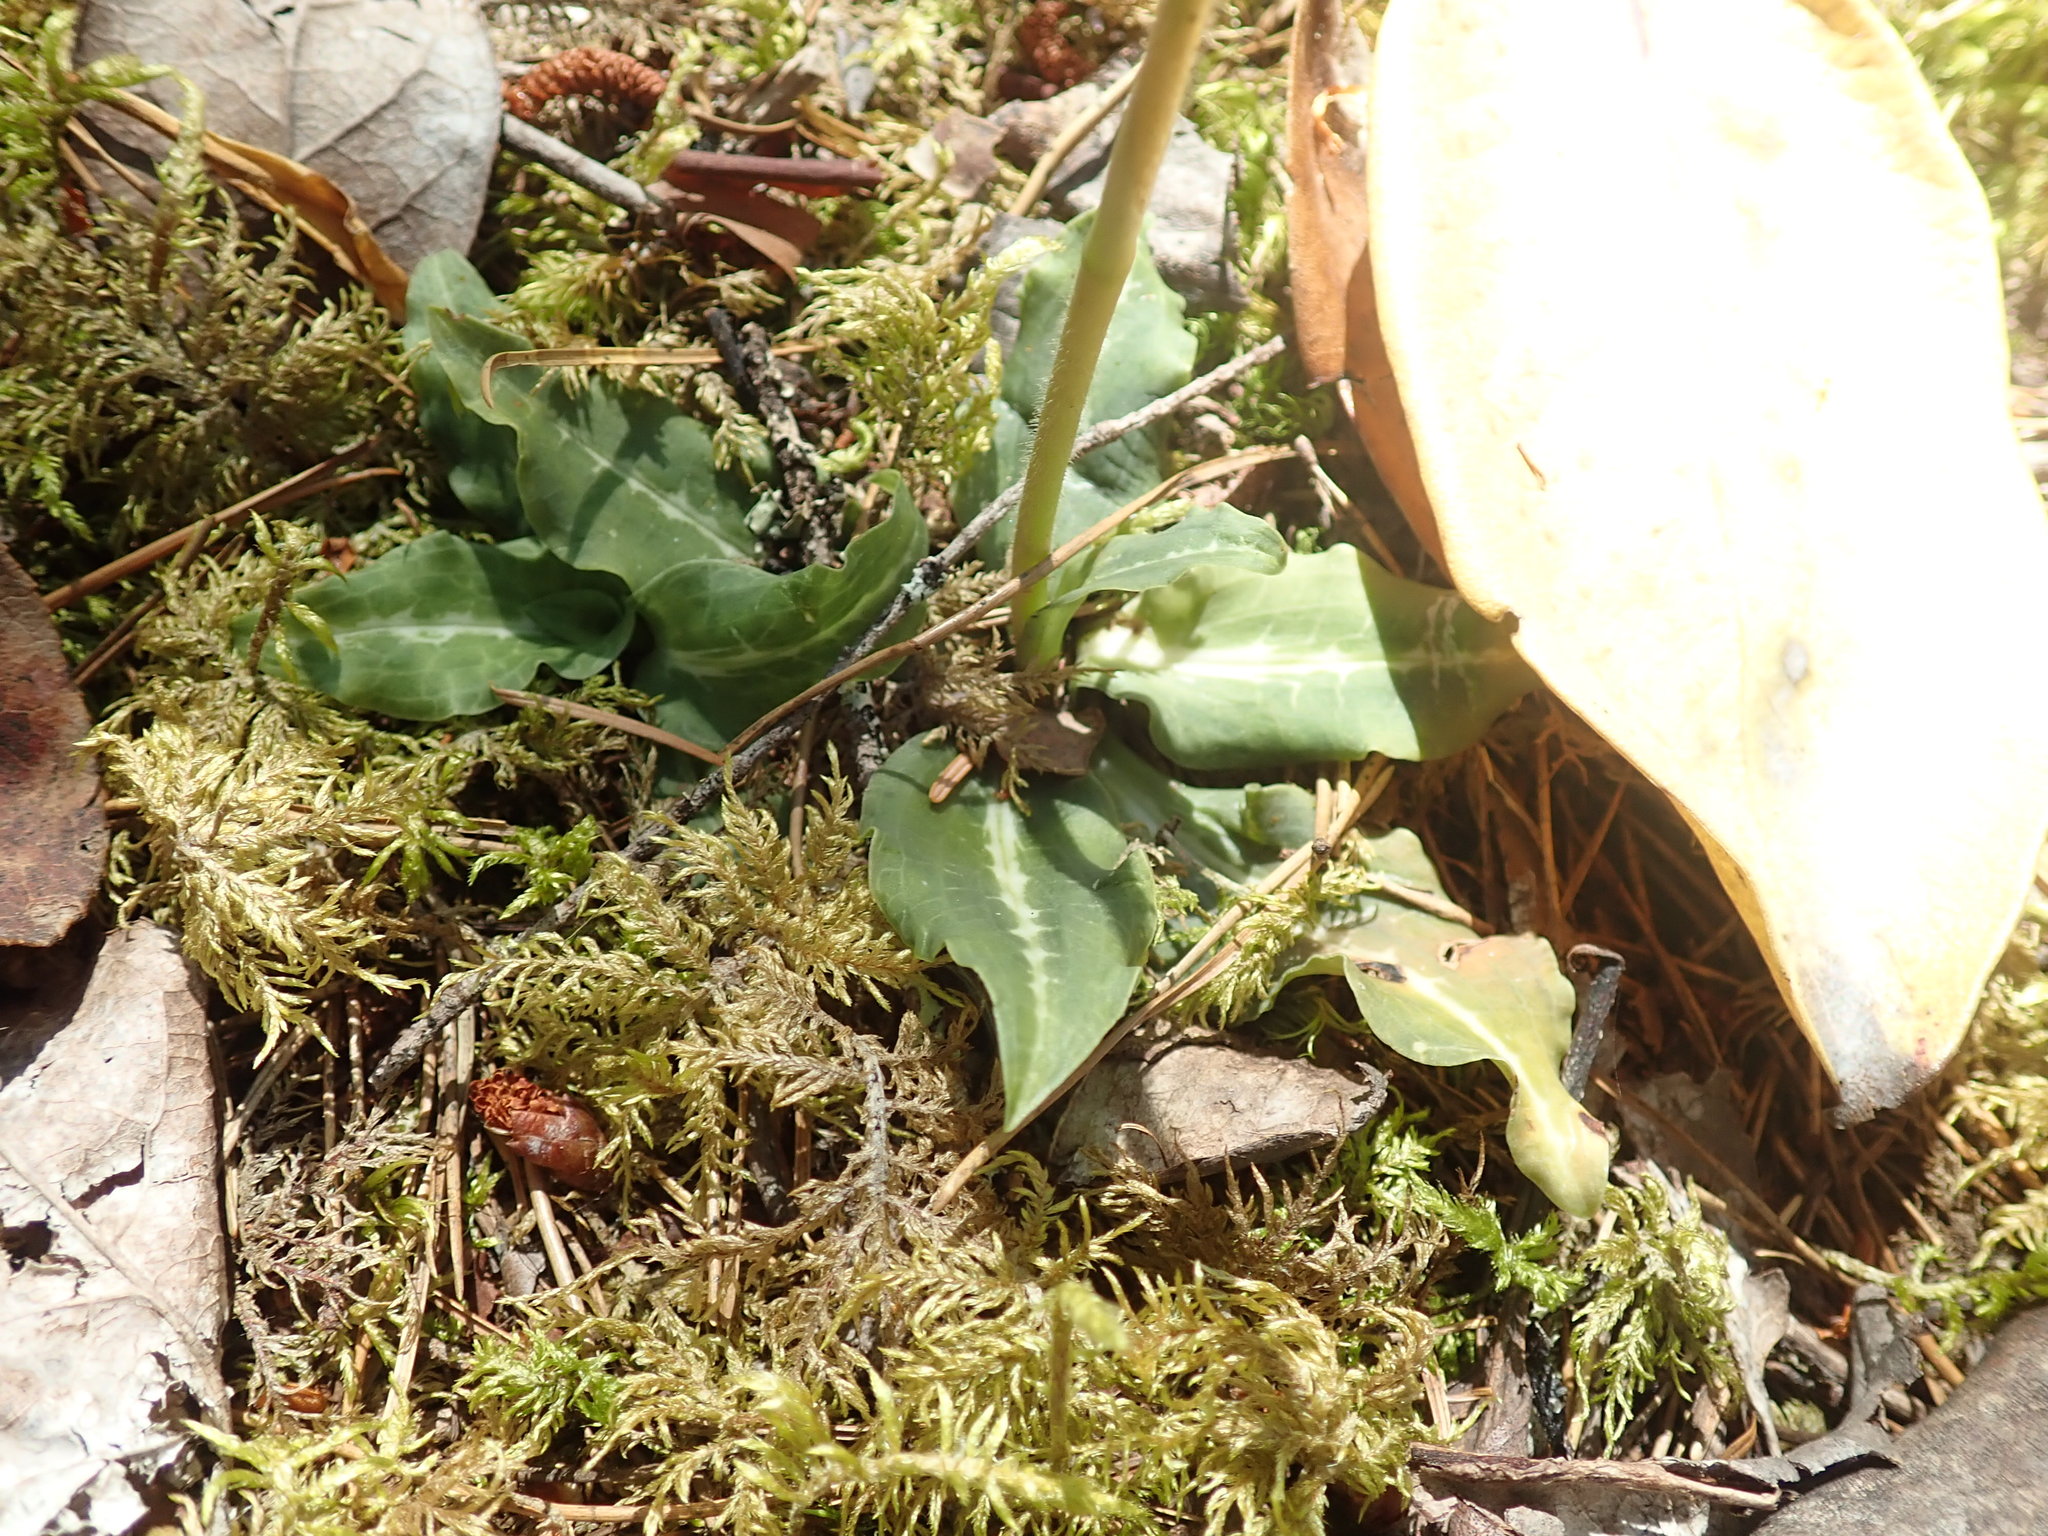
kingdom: Plantae
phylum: Tracheophyta
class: Liliopsida
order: Asparagales
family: Orchidaceae
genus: Goodyera
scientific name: Goodyera oblongifolia
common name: Giant rattlesnake-plantain
